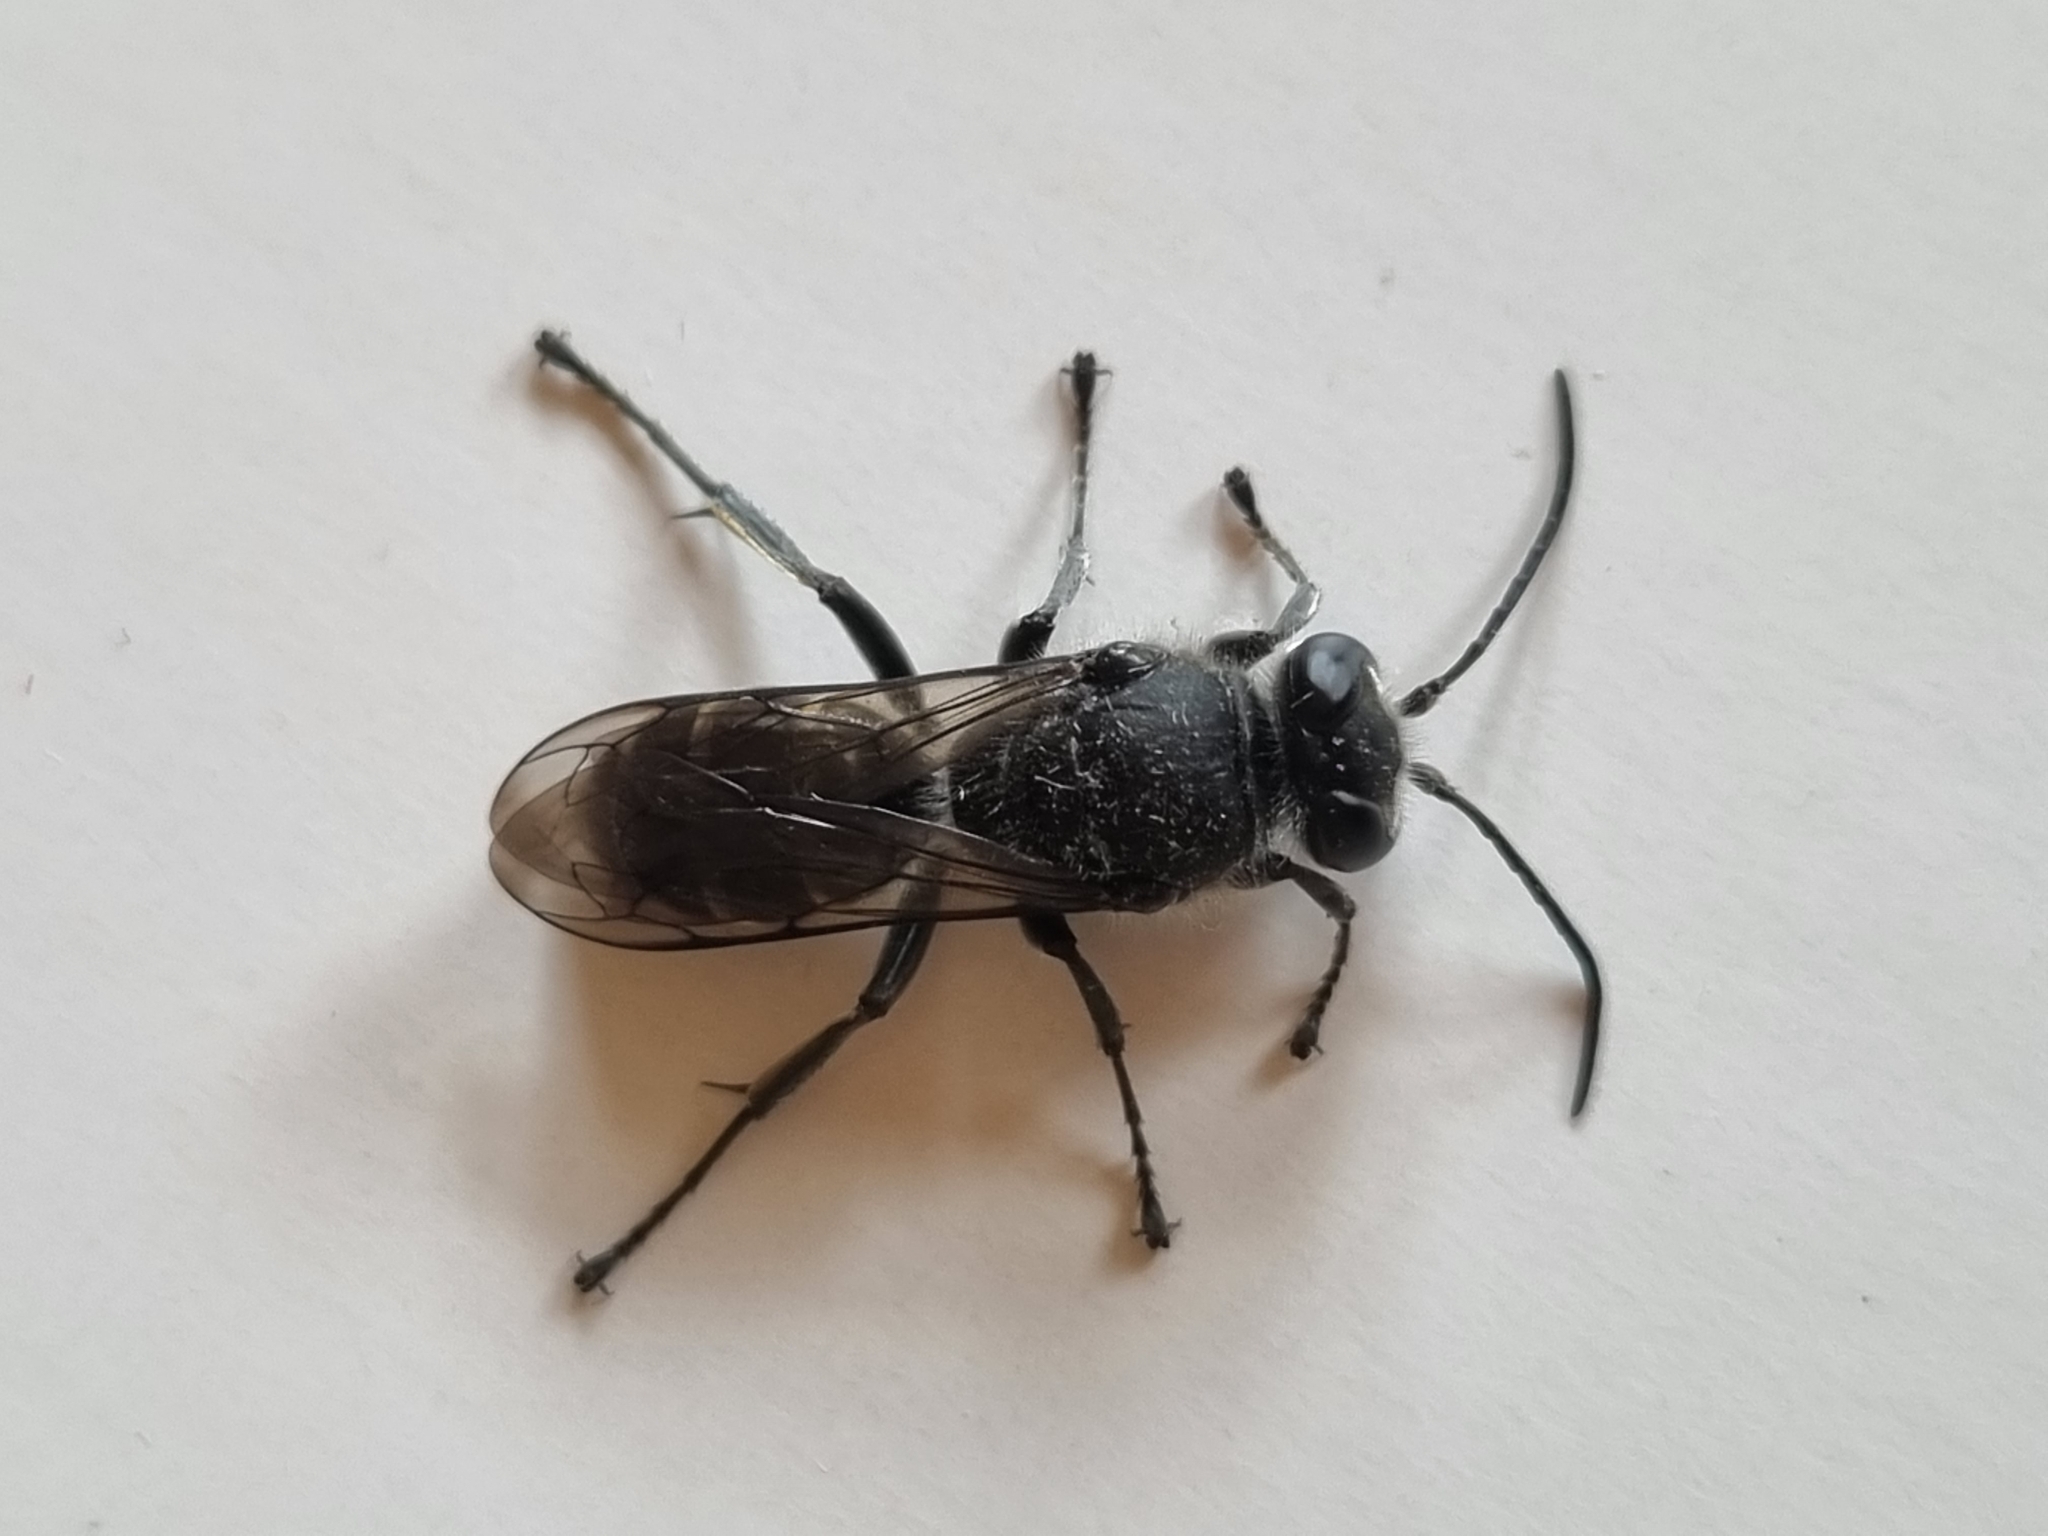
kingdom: Animalia
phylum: Arthropoda
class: Insecta
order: Hymenoptera
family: Crabronidae
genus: Pison
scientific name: Pison spinolae
